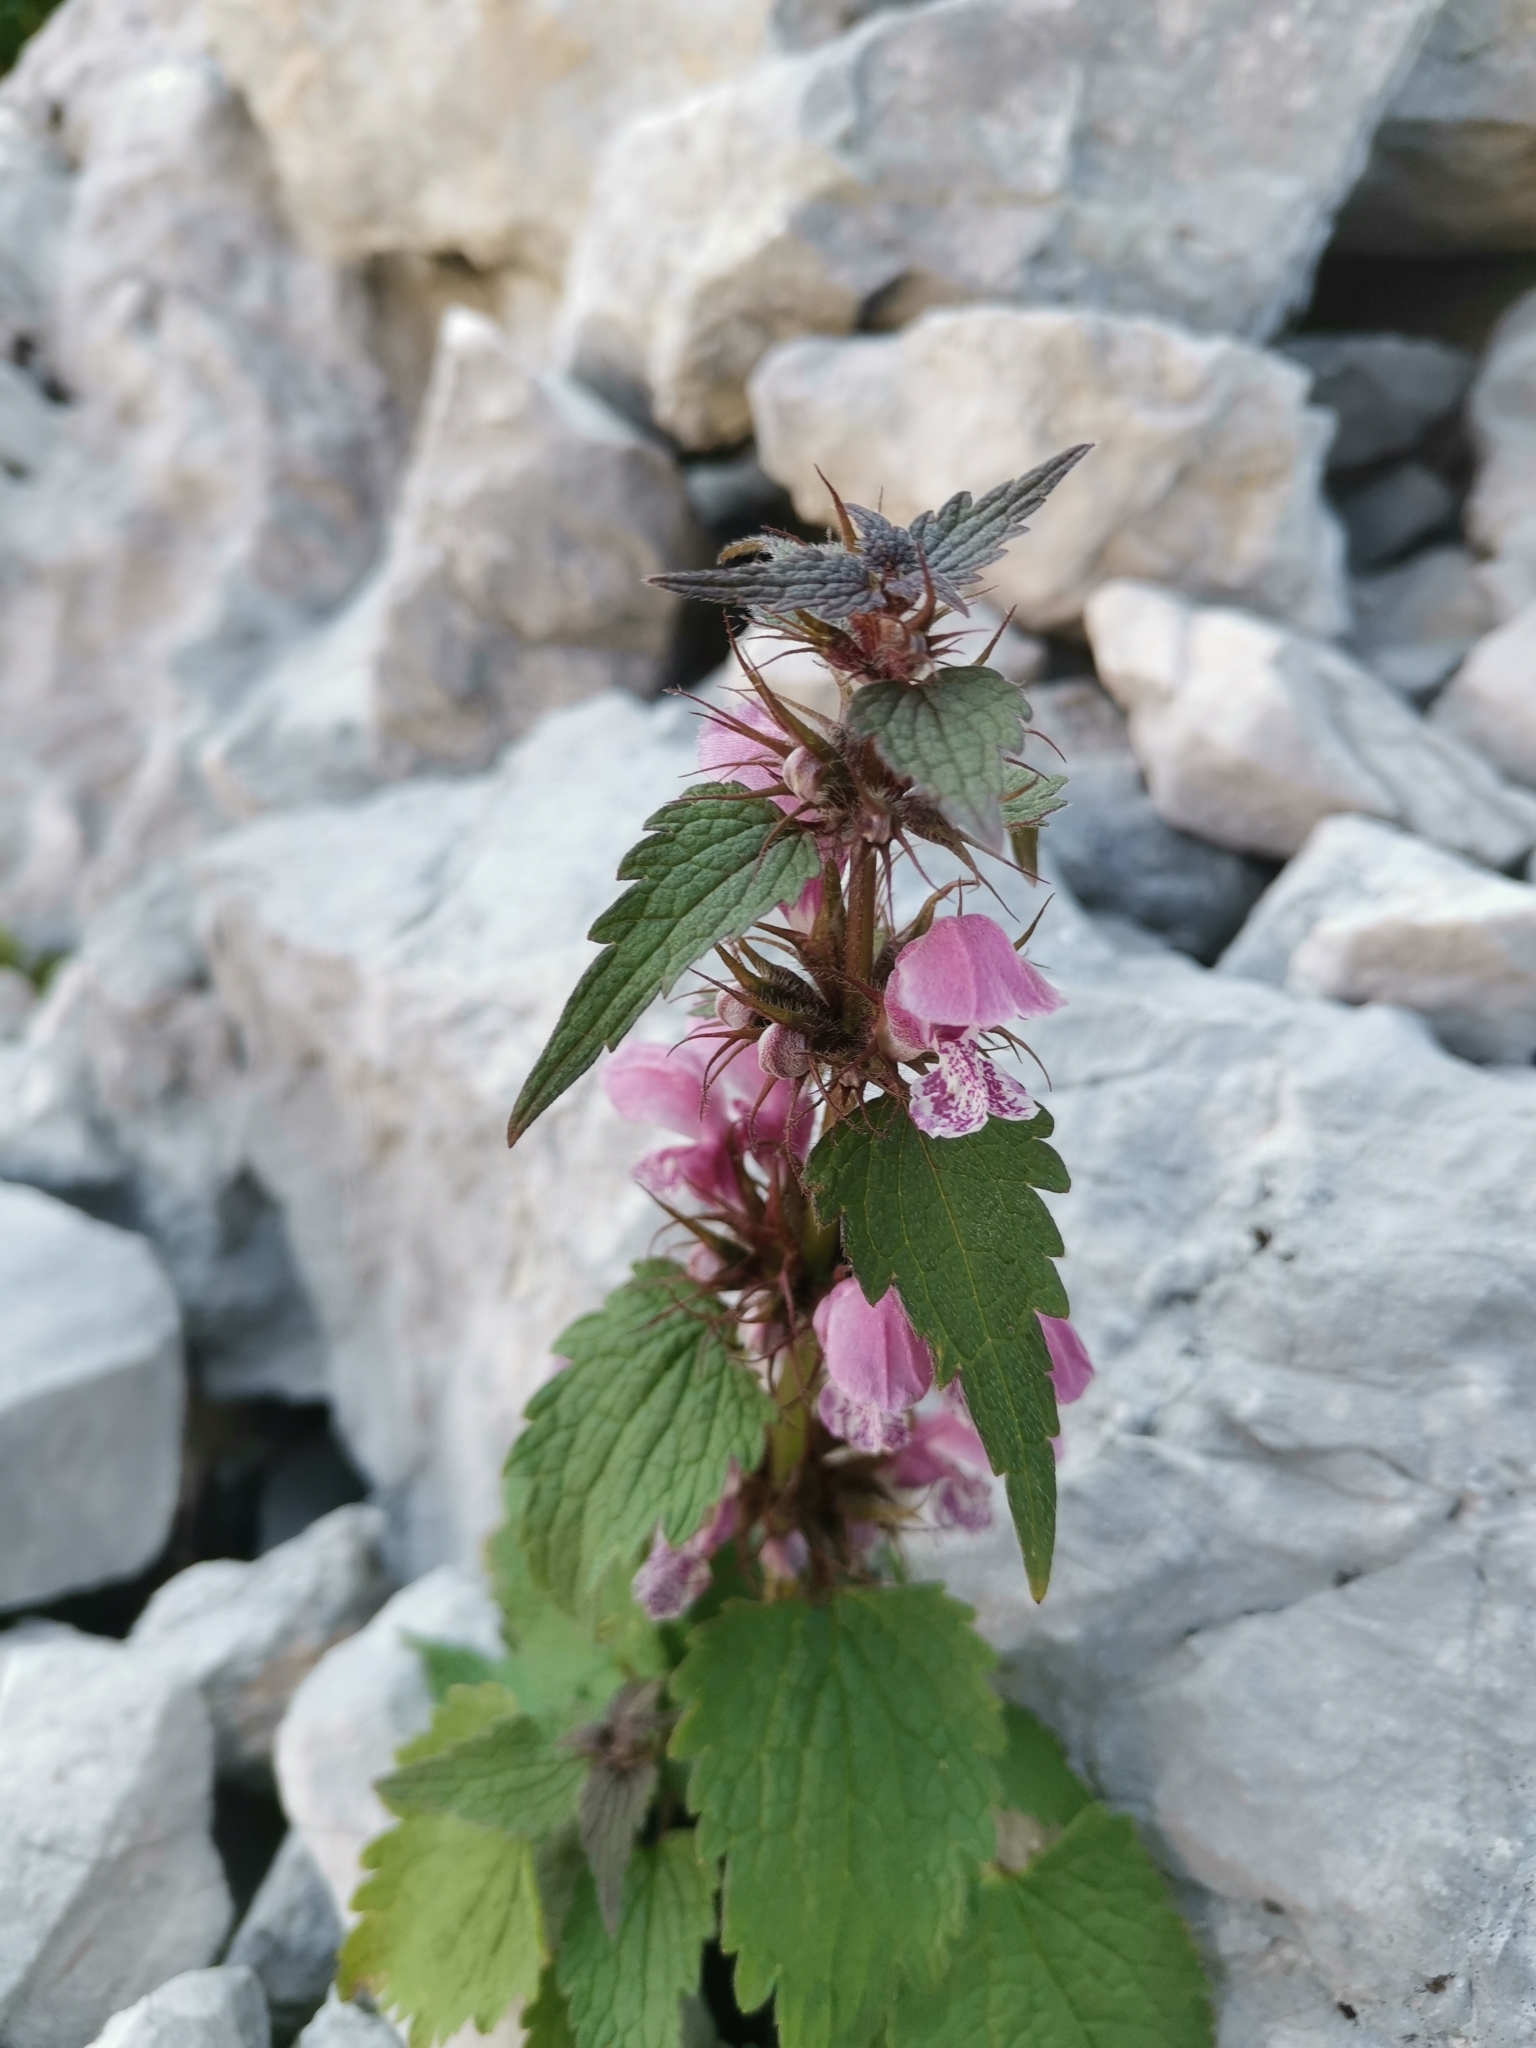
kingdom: Plantae
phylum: Tracheophyta
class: Magnoliopsida
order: Lamiales
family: Lamiaceae
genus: Lamium
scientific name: Lamium maculatum
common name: Spotted dead-nettle
